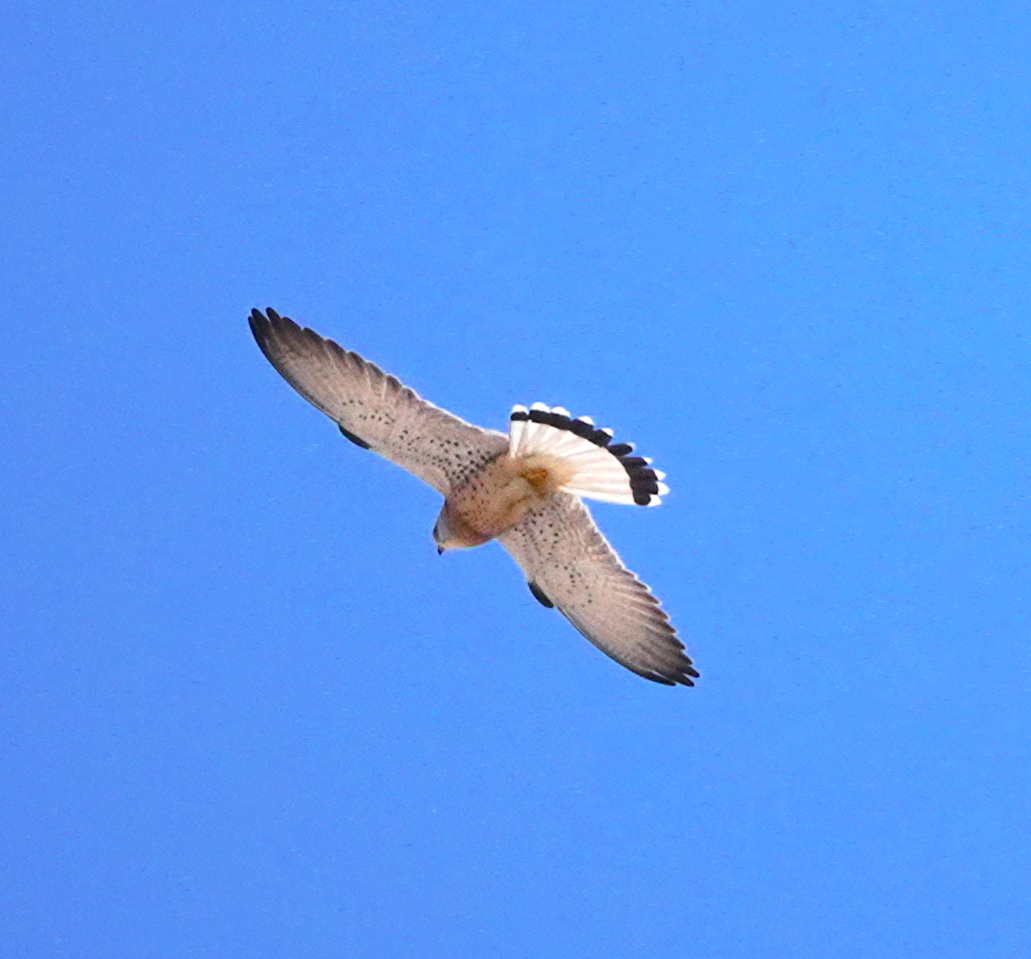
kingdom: Animalia
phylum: Chordata
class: Aves
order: Falconiformes
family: Falconidae
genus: Falco
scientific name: Falco naumanni
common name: Lesser kestrel
